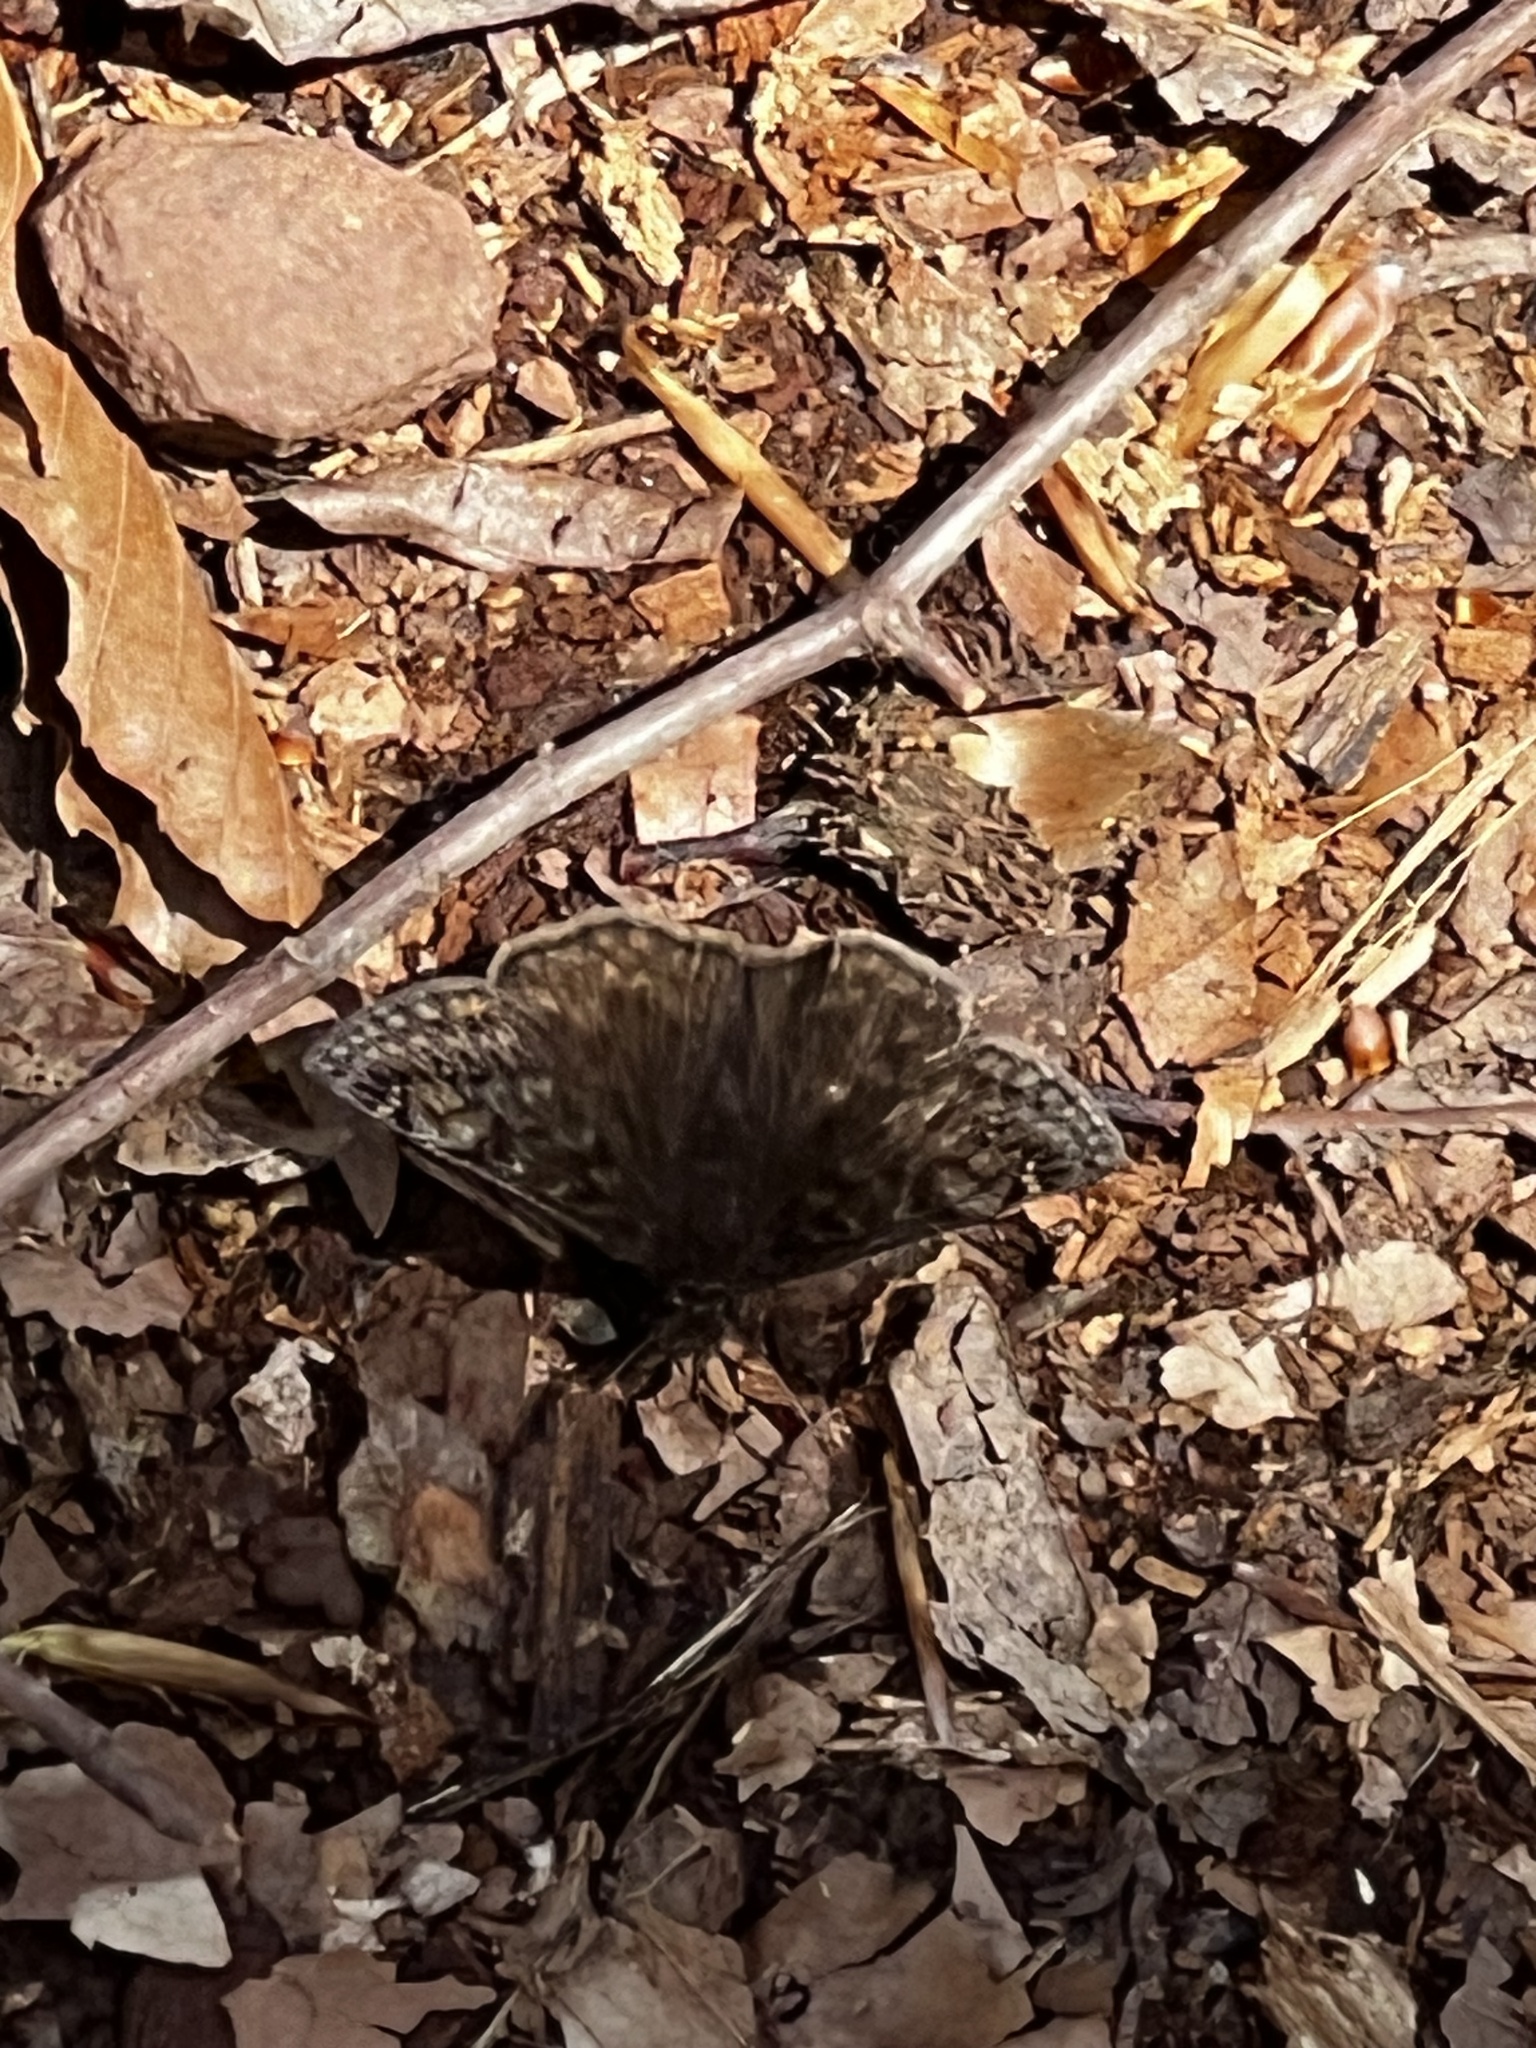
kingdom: Animalia
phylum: Arthropoda
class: Insecta
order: Lepidoptera
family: Hesperiidae
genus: Erynnis
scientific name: Erynnis juvenalis
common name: Juvenal's duskywing
